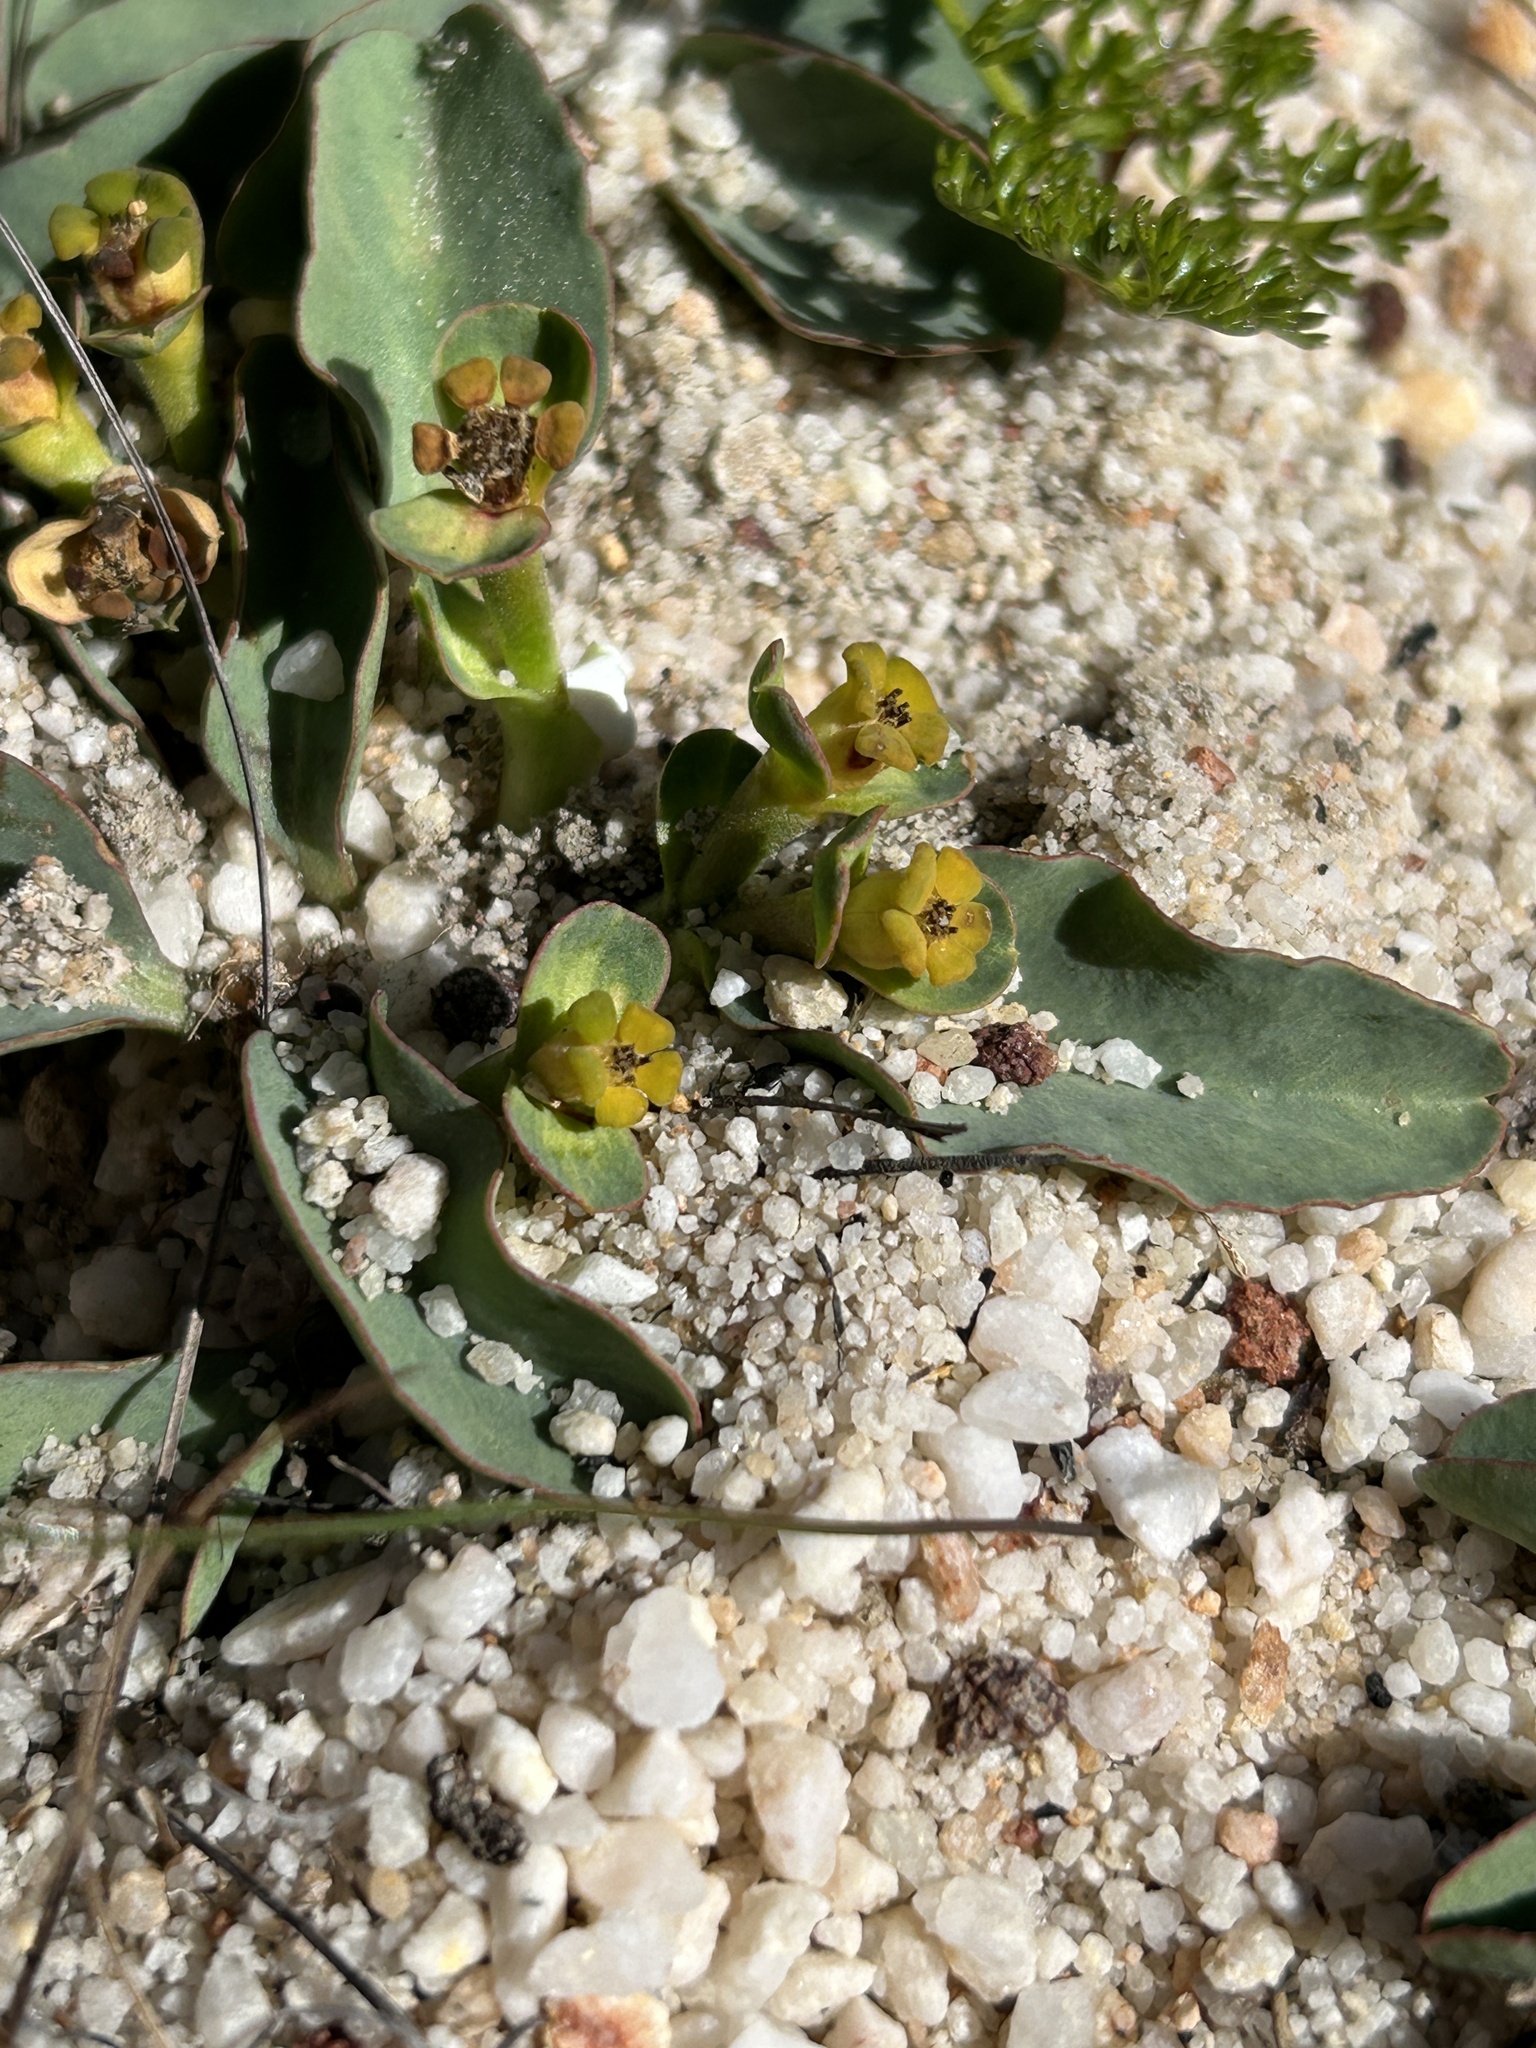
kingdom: Plantae
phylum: Tracheophyta
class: Magnoliopsida
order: Malpighiales
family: Euphorbiaceae
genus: Euphorbia
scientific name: Euphorbia tuberosa
